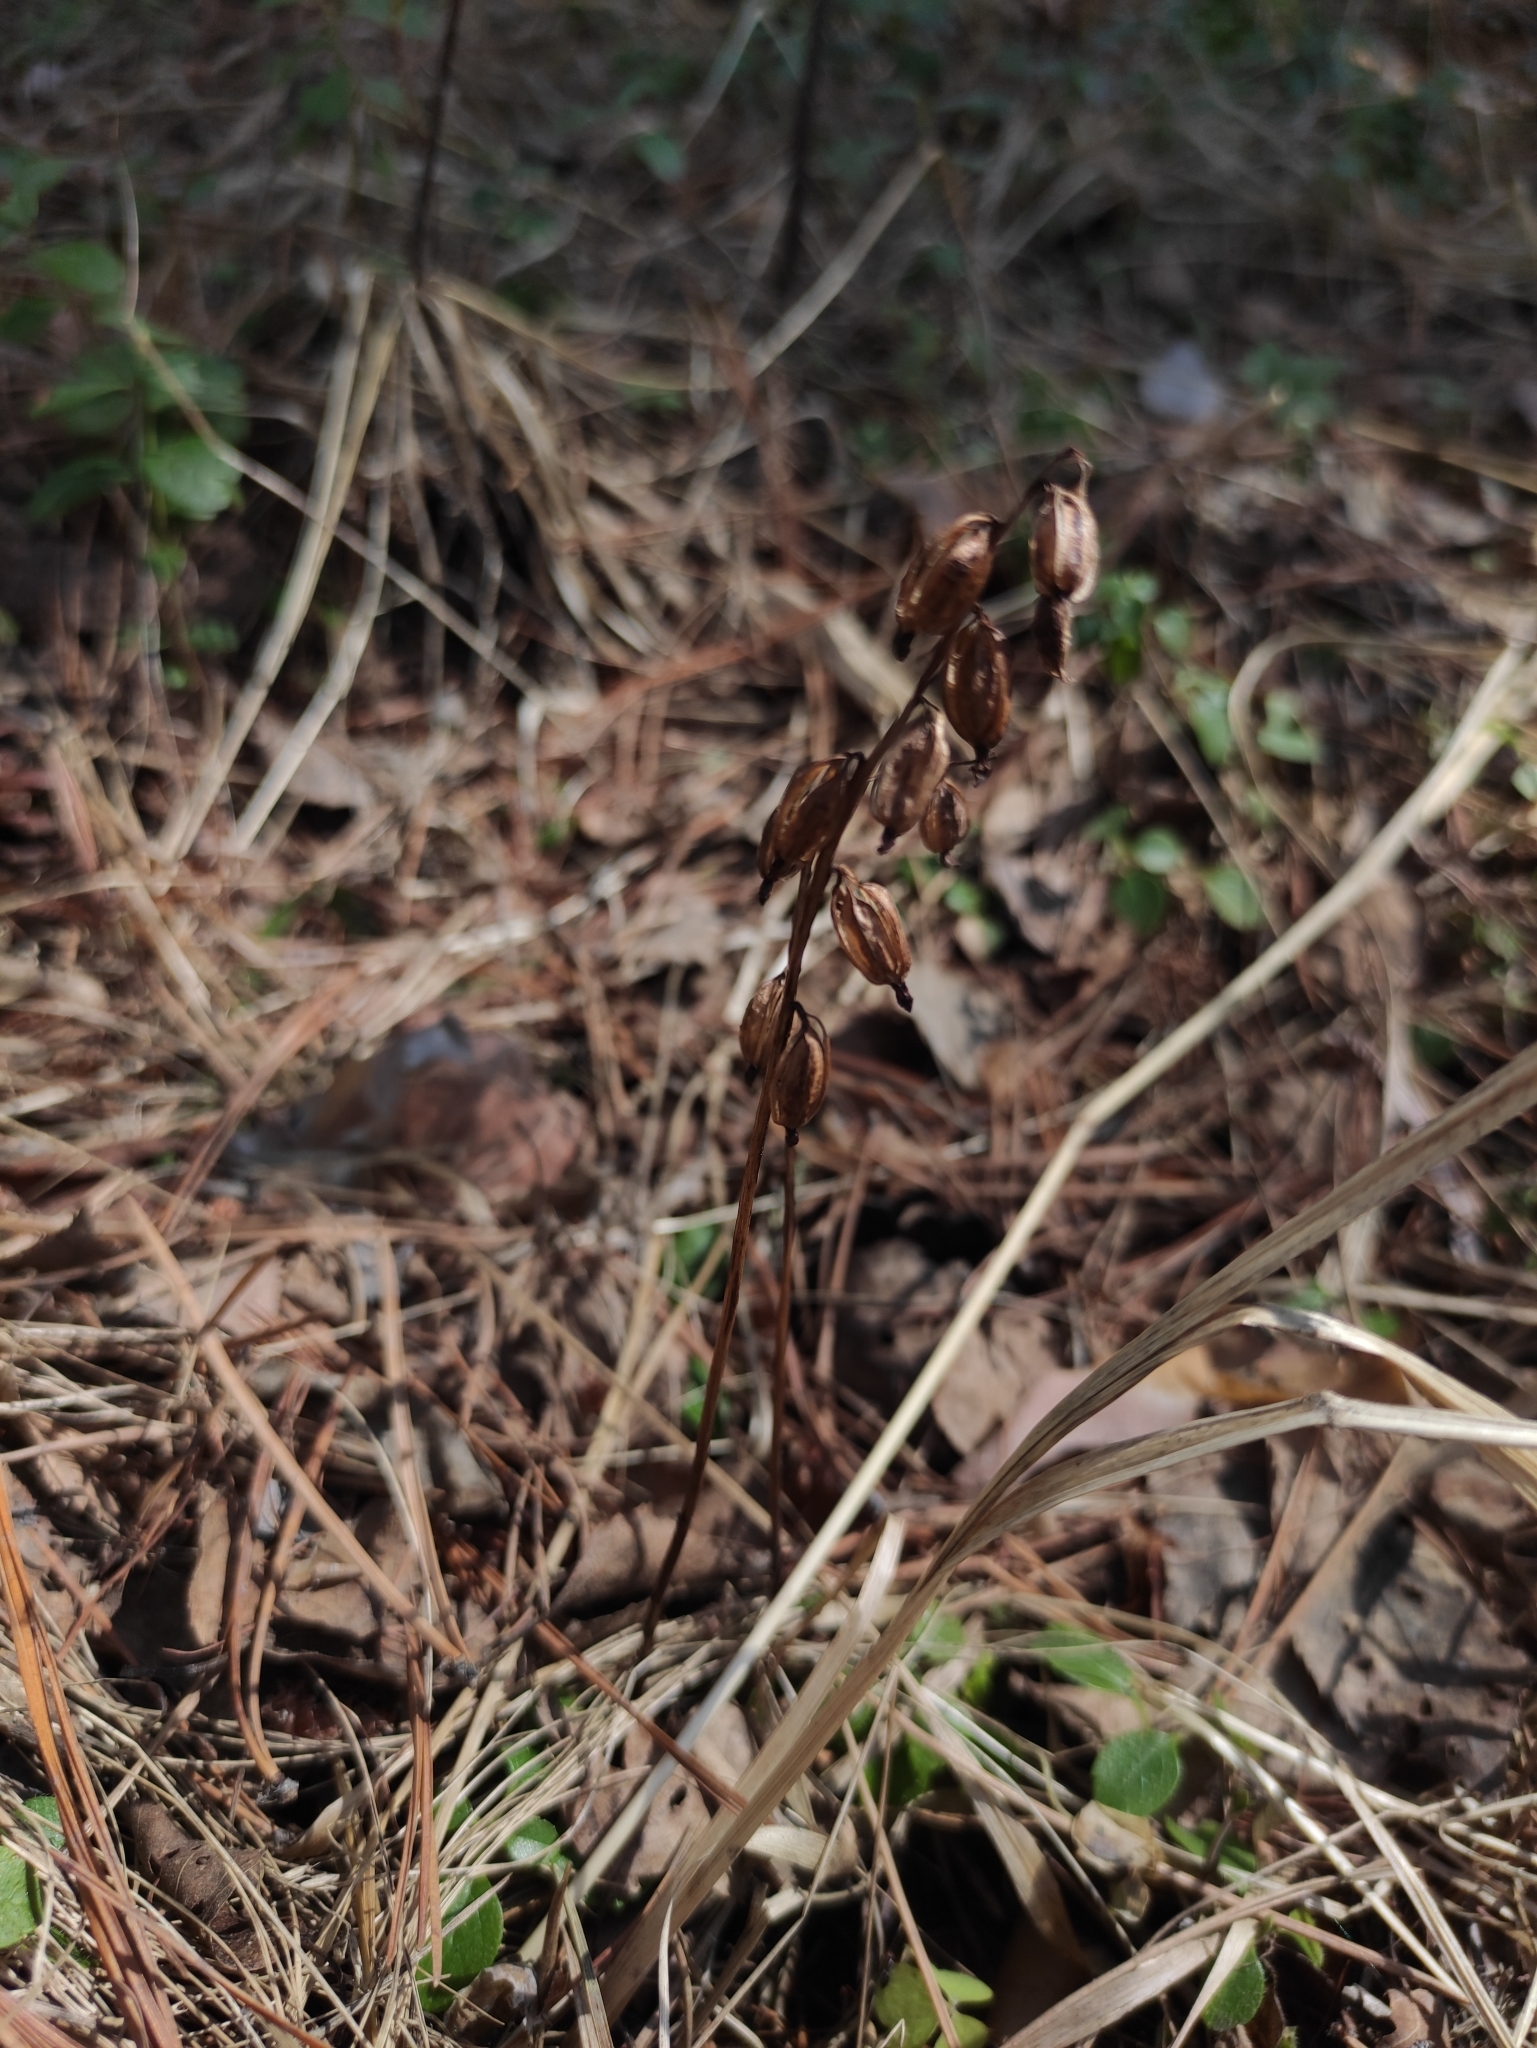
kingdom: Plantae
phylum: Tracheophyta
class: Liliopsida
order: Asparagales
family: Orchidaceae
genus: Corallorhiza
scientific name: Corallorhiza trifida
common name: Yellow coralroot
